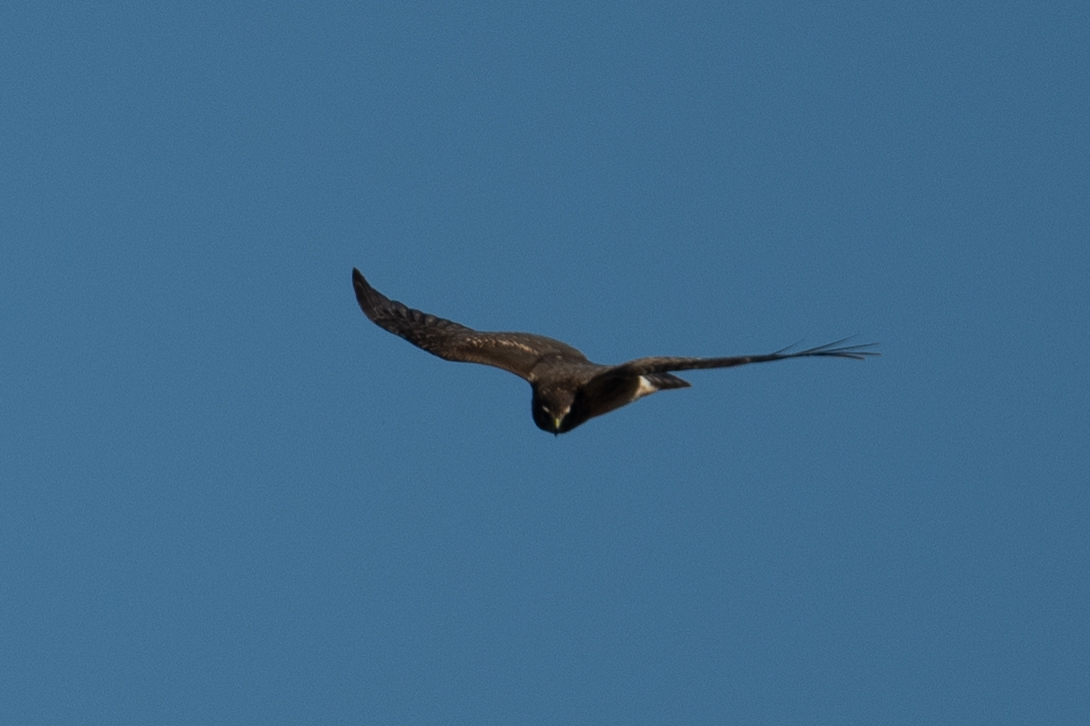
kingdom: Animalia
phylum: Chordata
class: Aves
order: Accipitriformes
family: Accipitridae
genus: Circus
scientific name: Circus cyaneus
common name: Hen harrier
